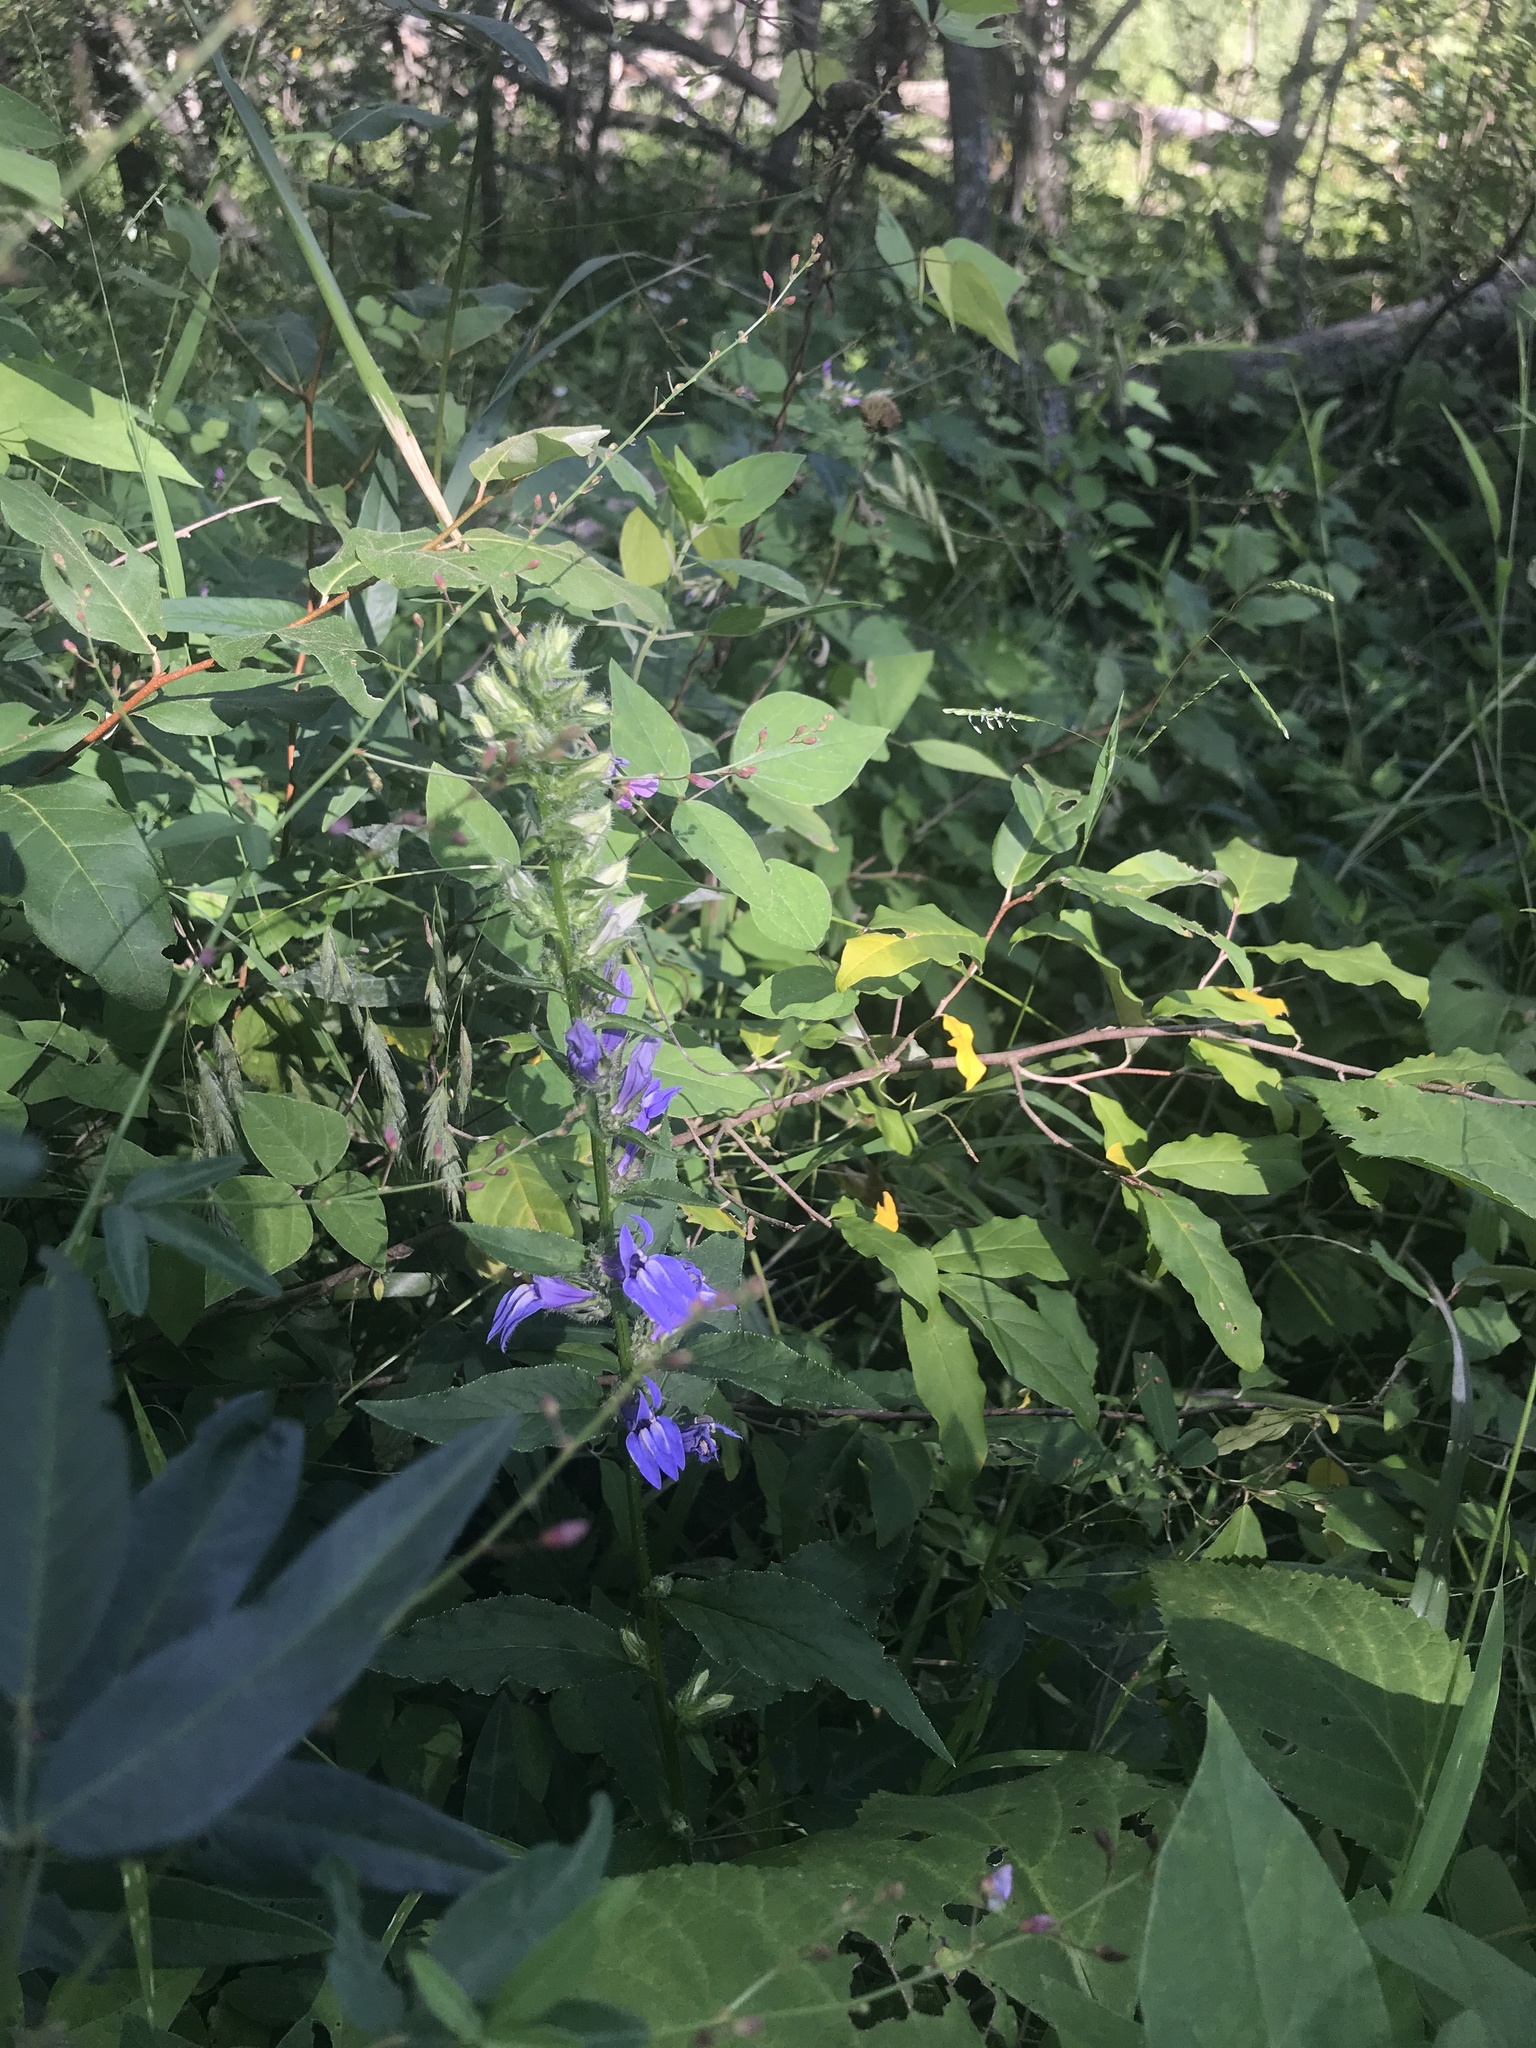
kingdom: Plantae
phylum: Tracheophyta
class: Magnoliopsida
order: Asterales
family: Campanulaceae
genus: Lobelia
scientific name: Lobelia siphilitica
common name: Great lobelia
